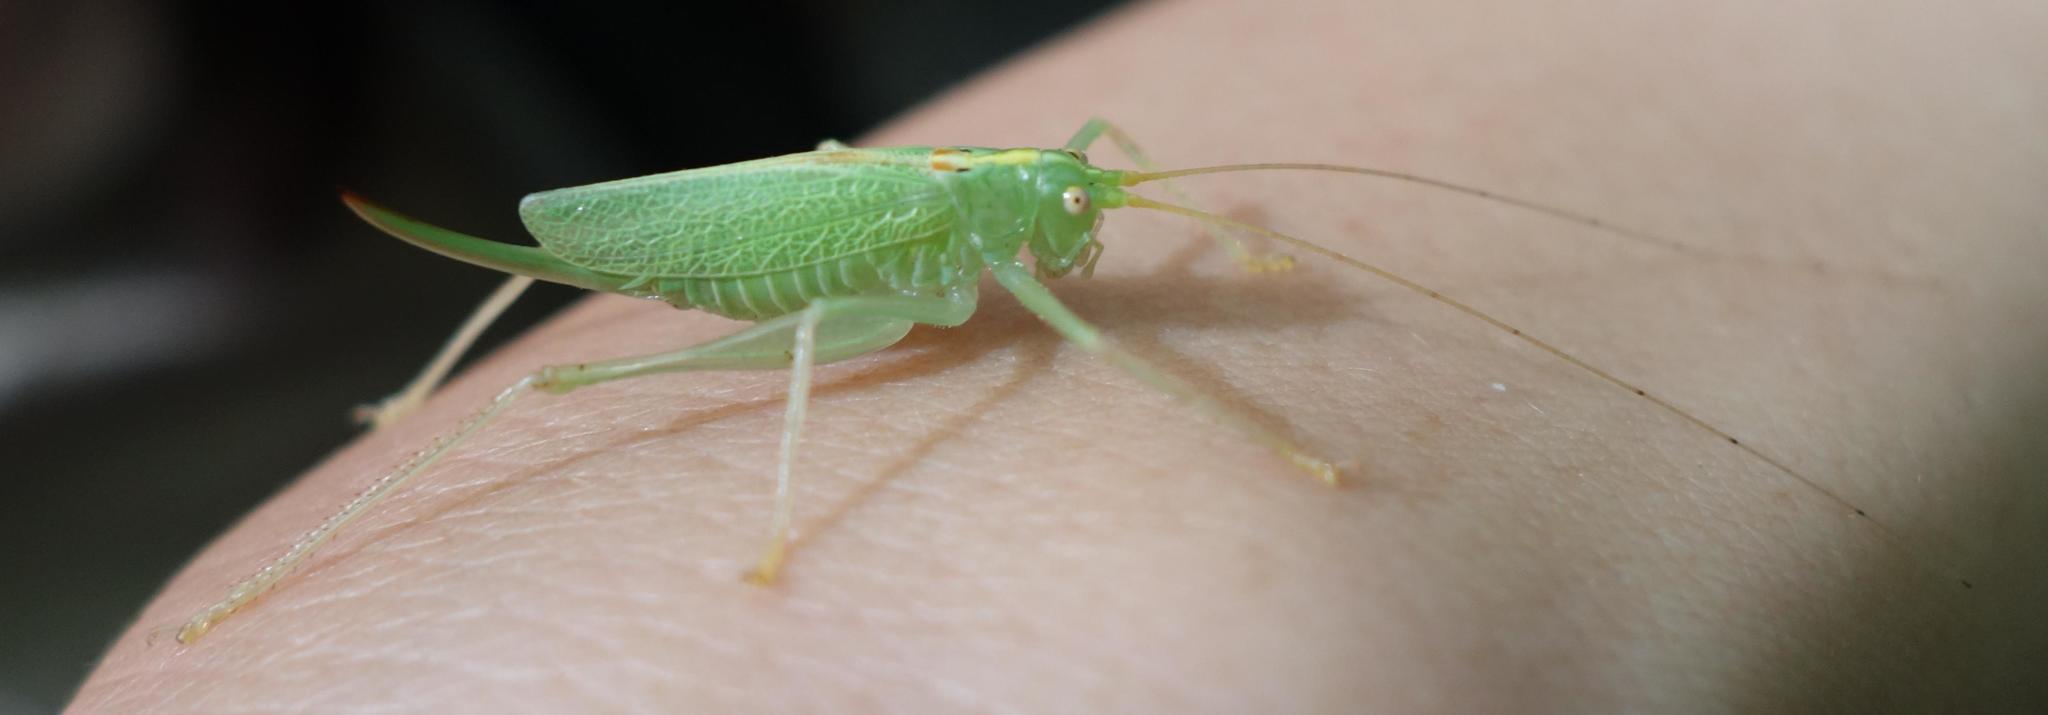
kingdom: Animalia
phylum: Arthropoda
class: Insecta
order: Orthoptera
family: Tettigoniidae
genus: Meconema
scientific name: Meconema thalassinum
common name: Oak bush-cricket
